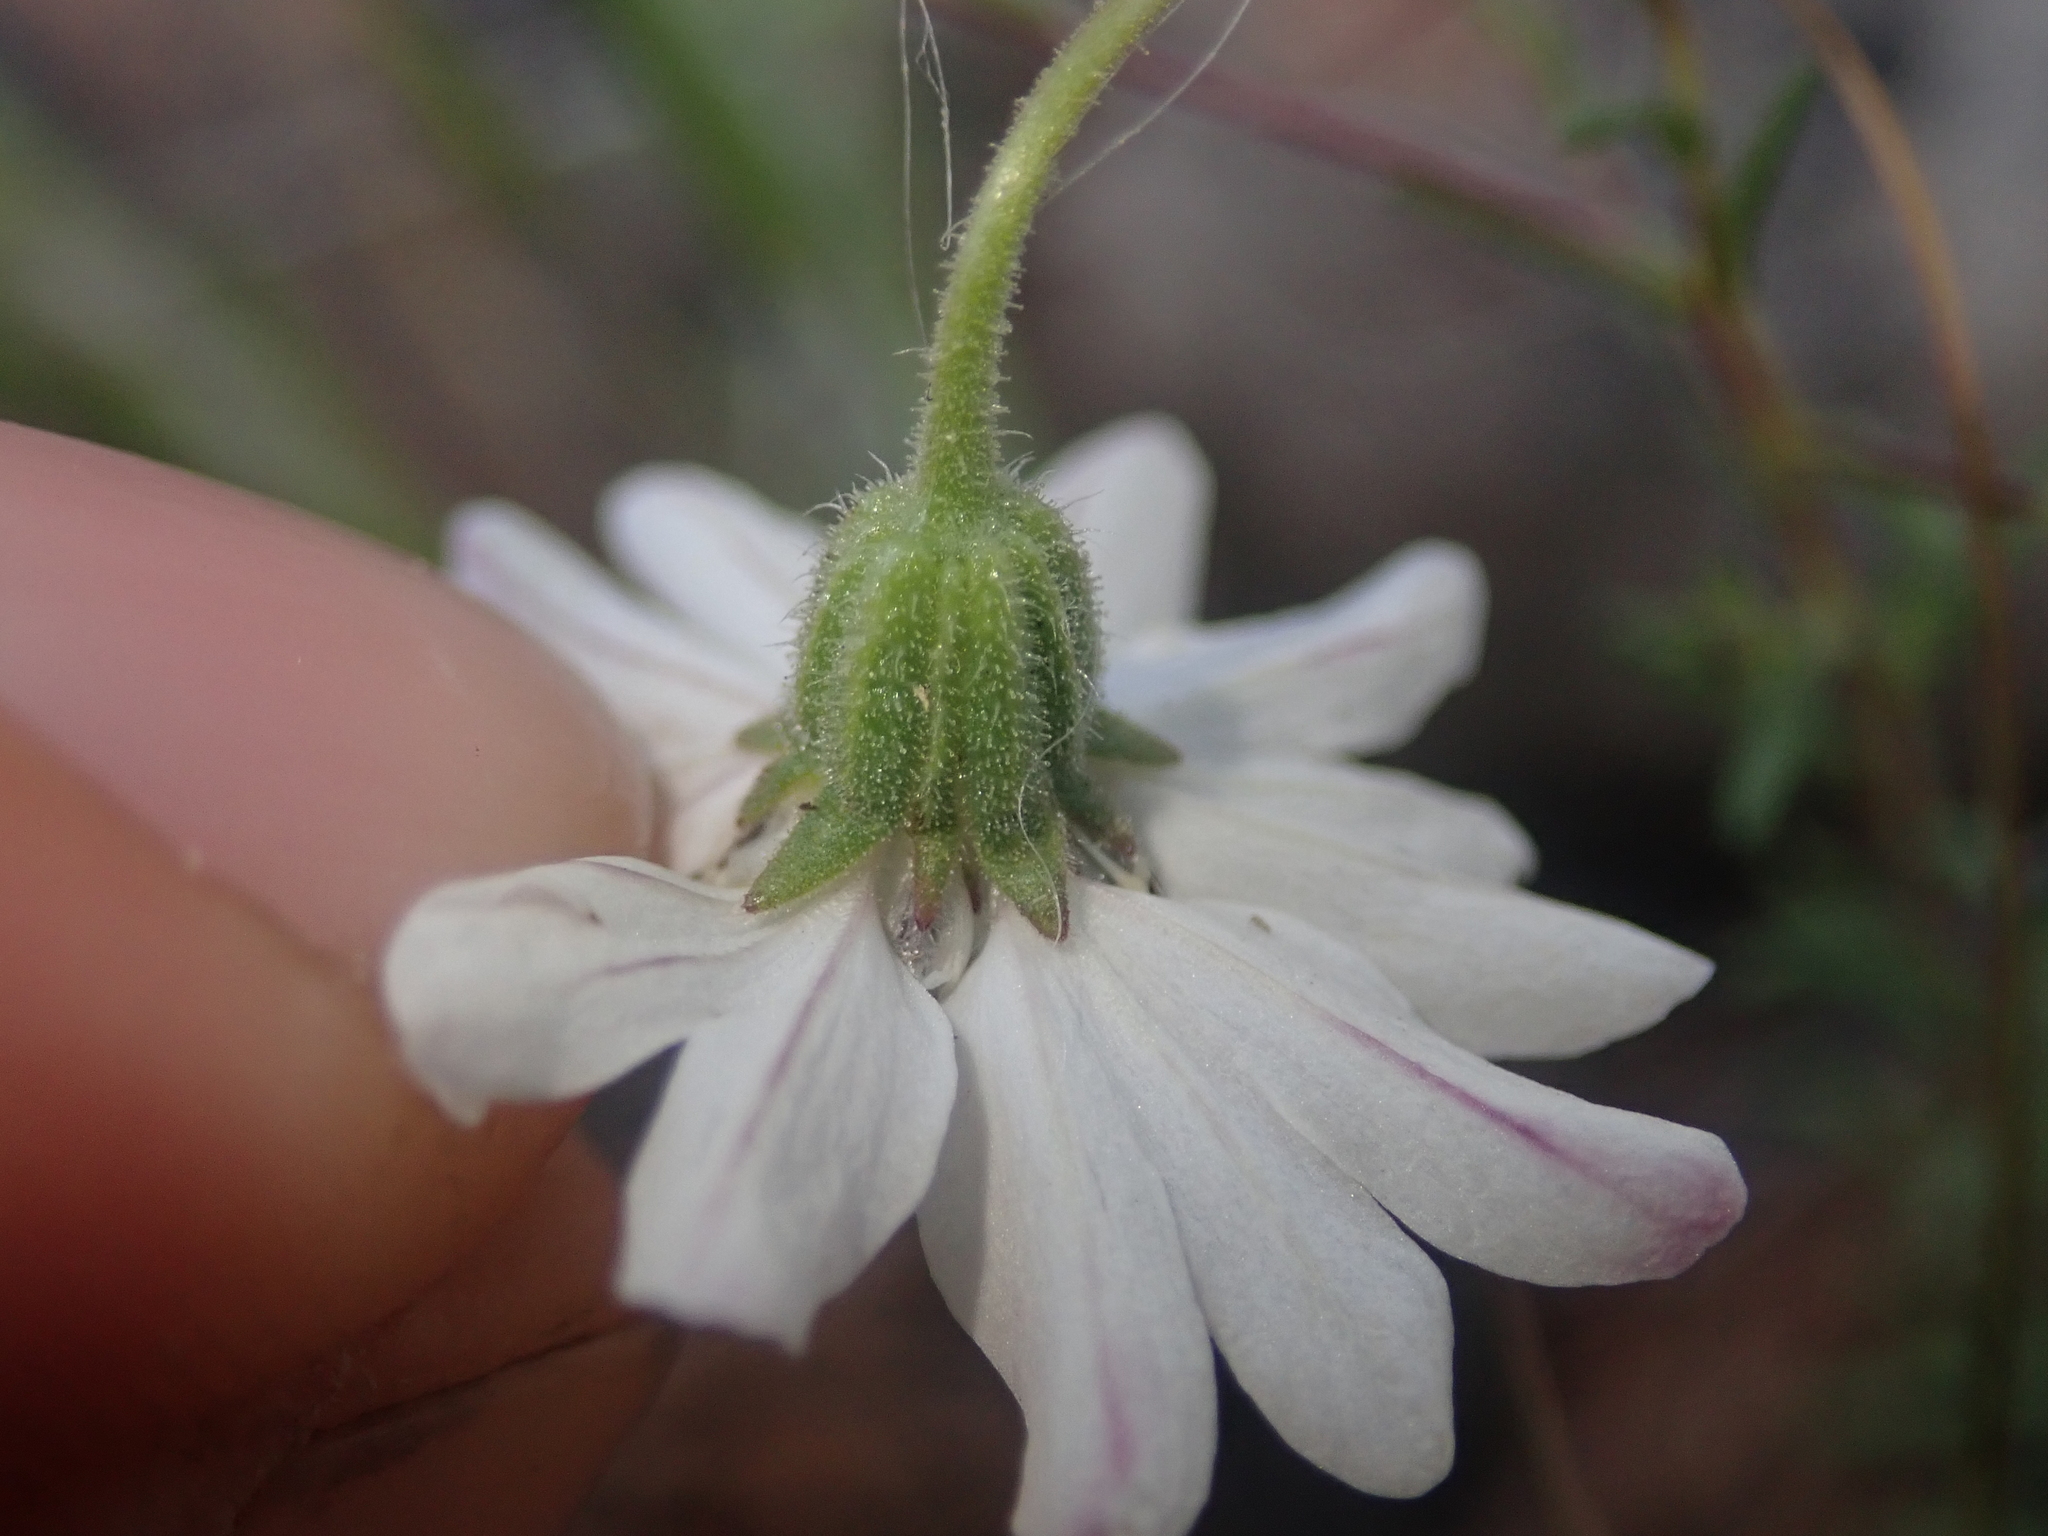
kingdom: Plantae
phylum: Tracheophyta
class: Magnoliopsida
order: Asterales
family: Asteraceae
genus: Blepharipappus
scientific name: Blepharipappus scaber
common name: Rough blepharipappus
